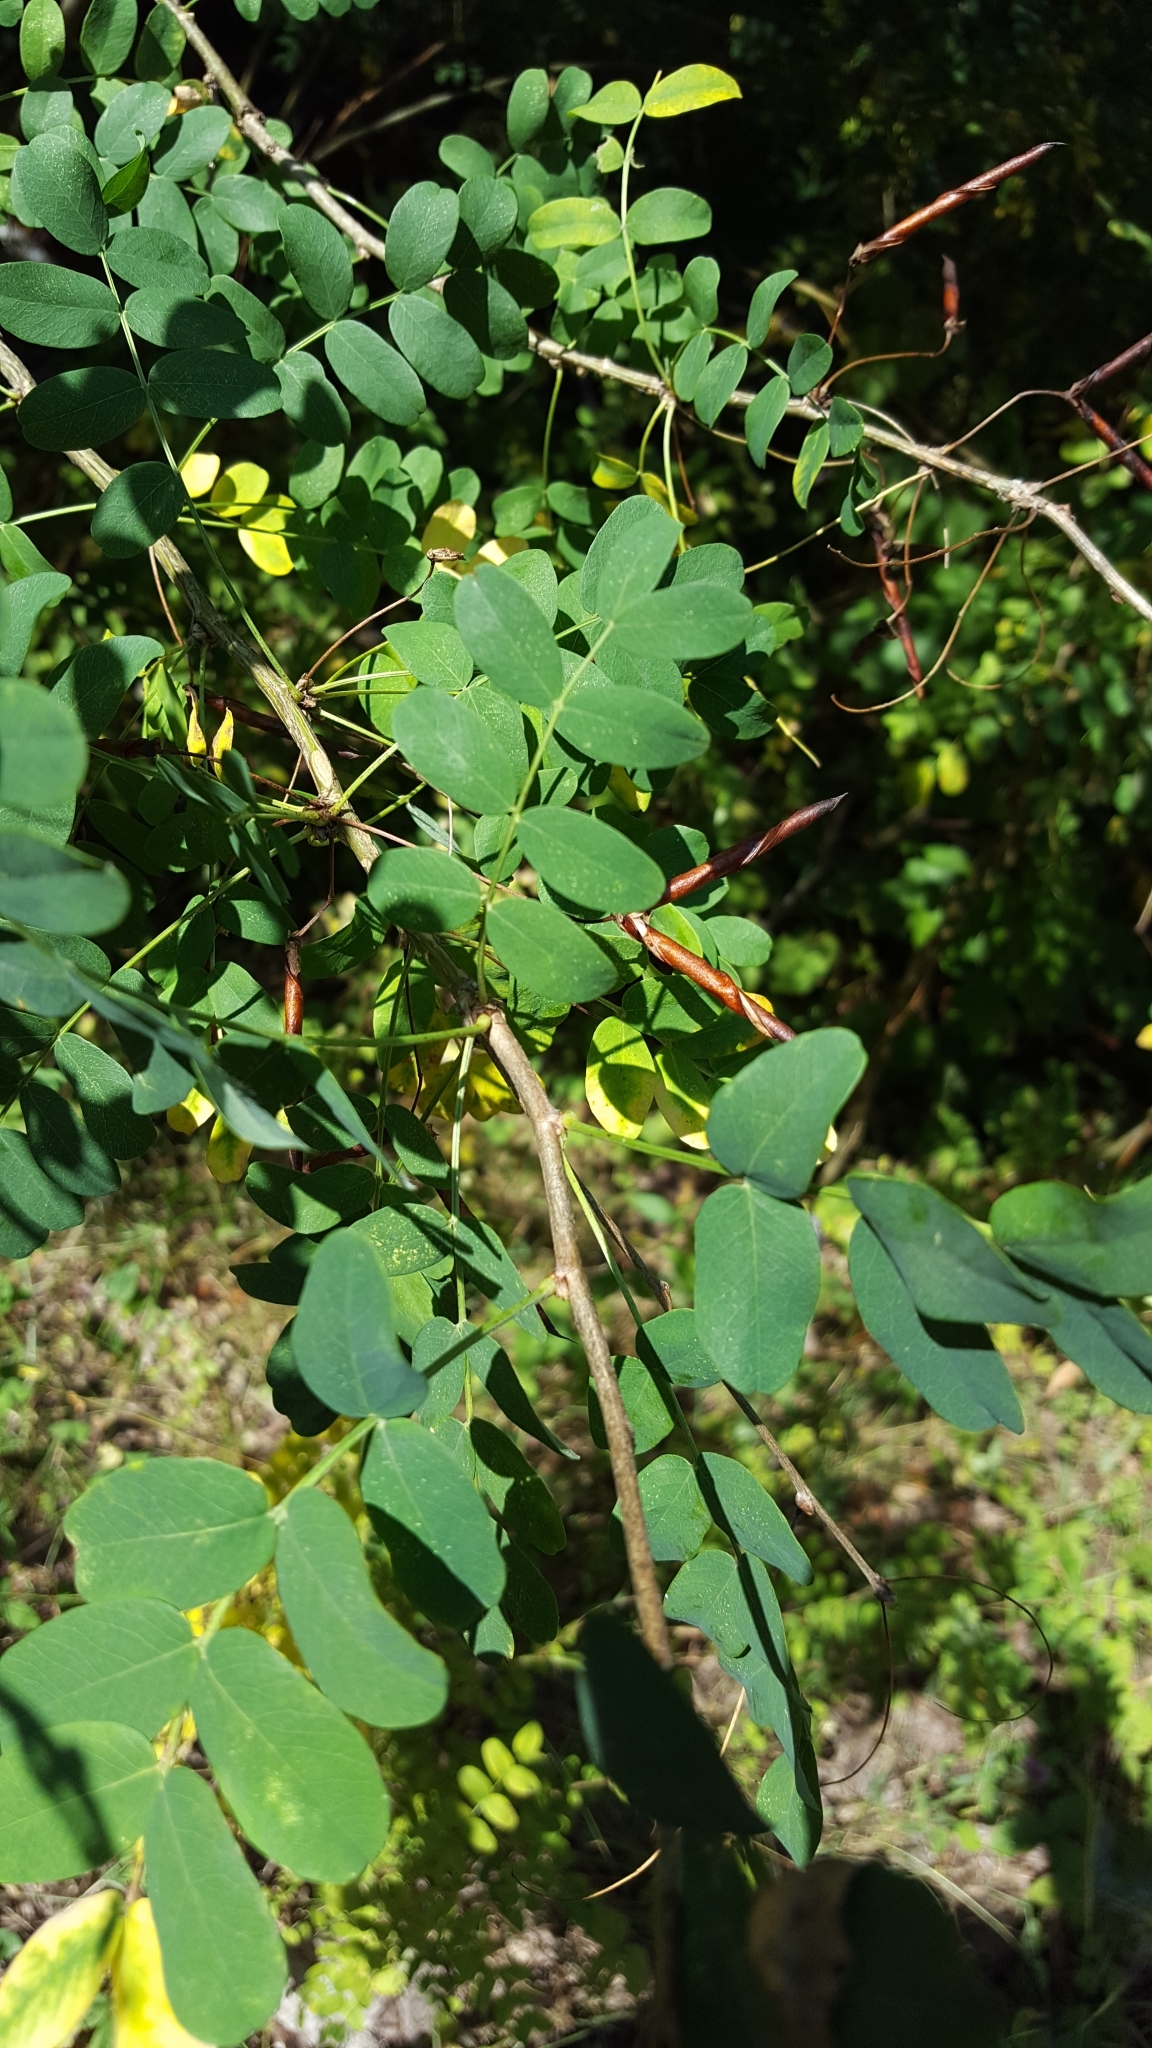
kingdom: Plantae
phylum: Tracheophyta
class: Magnoliopsida
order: Fabales
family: Fabaceae
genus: Caragana
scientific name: Caragana arborescens
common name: Siberian peashrub
